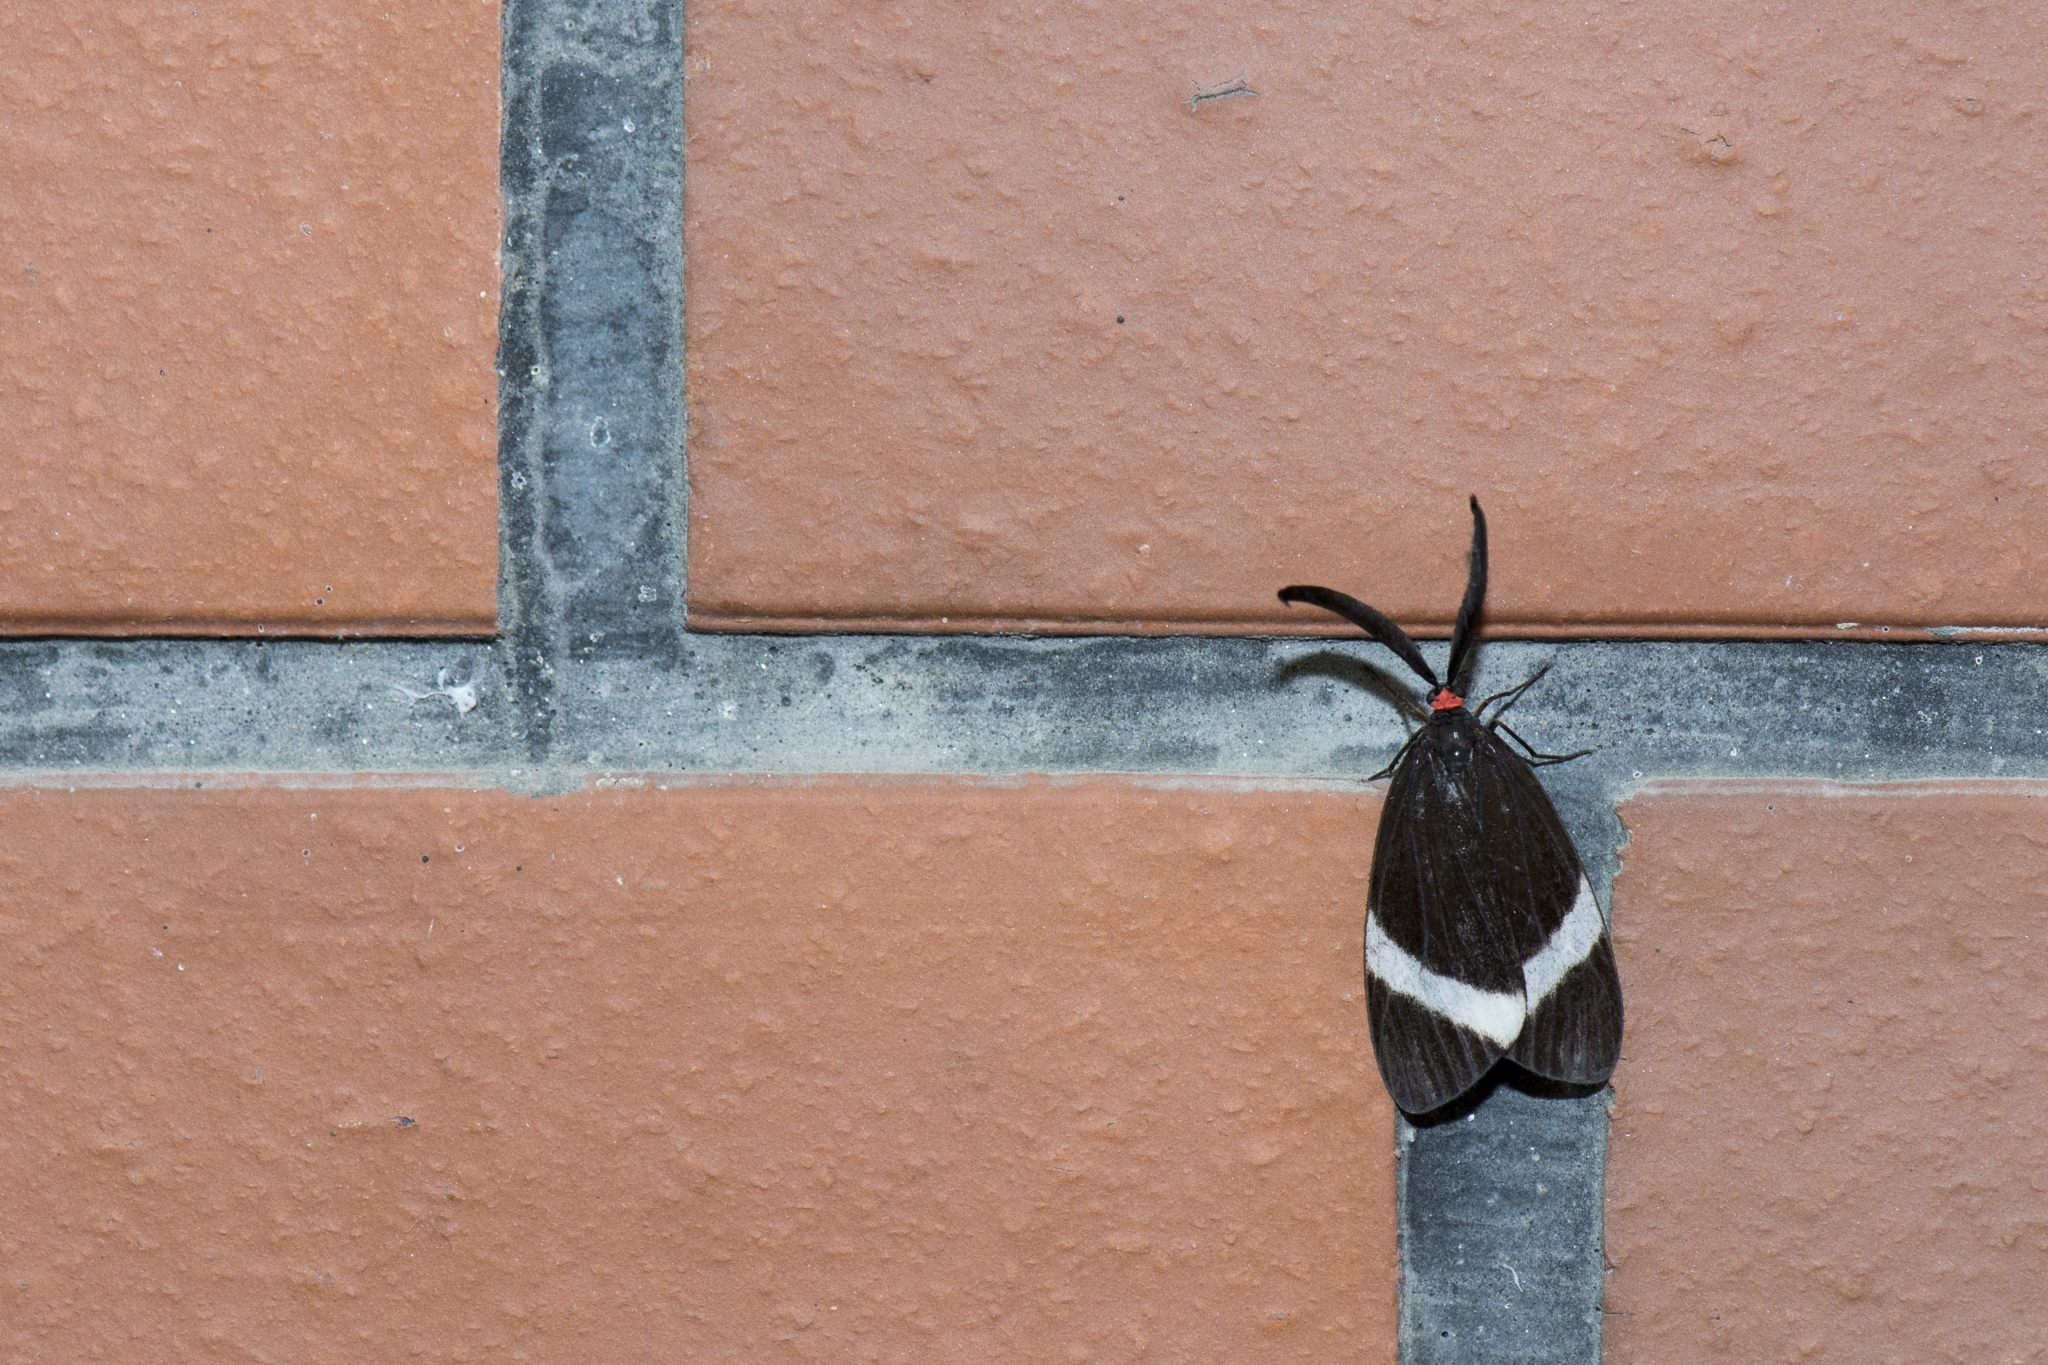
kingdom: Animalia
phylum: Arthropoda
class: Insecta
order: Lepidoptera
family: Zygaenidae
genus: Pidorus
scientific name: Pidorus glaucopis
